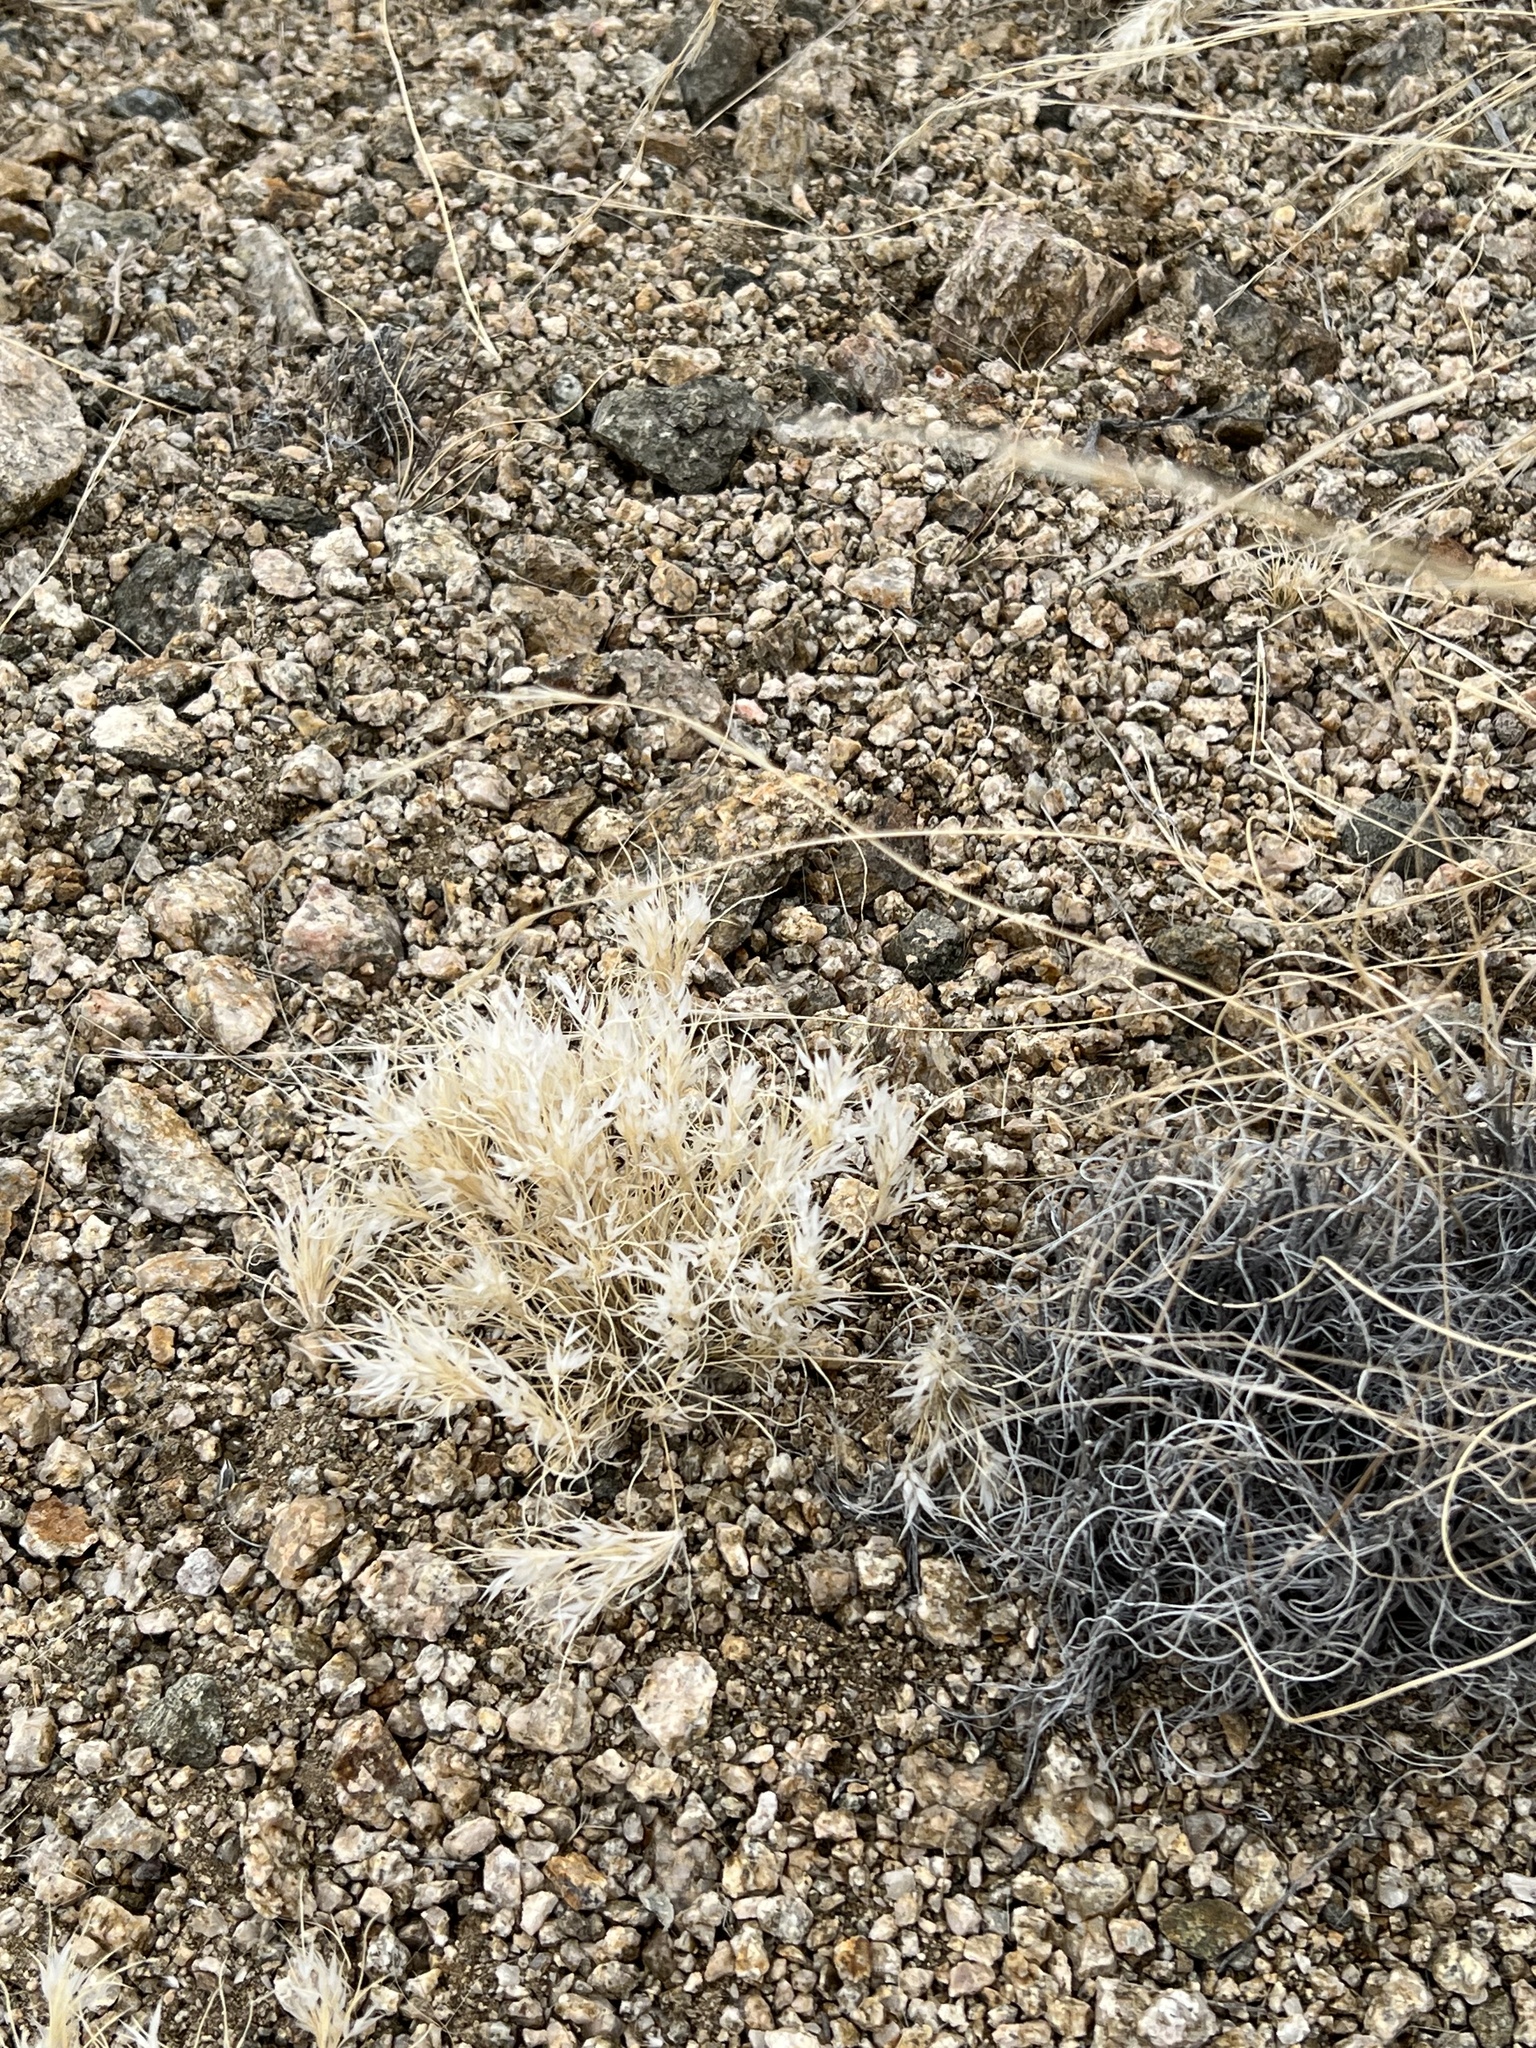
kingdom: Plantae
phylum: Tracheophyta
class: Liliopsida
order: Poales
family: Poaceae
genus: Dasyochloa
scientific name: Dasyochloa pulchella
